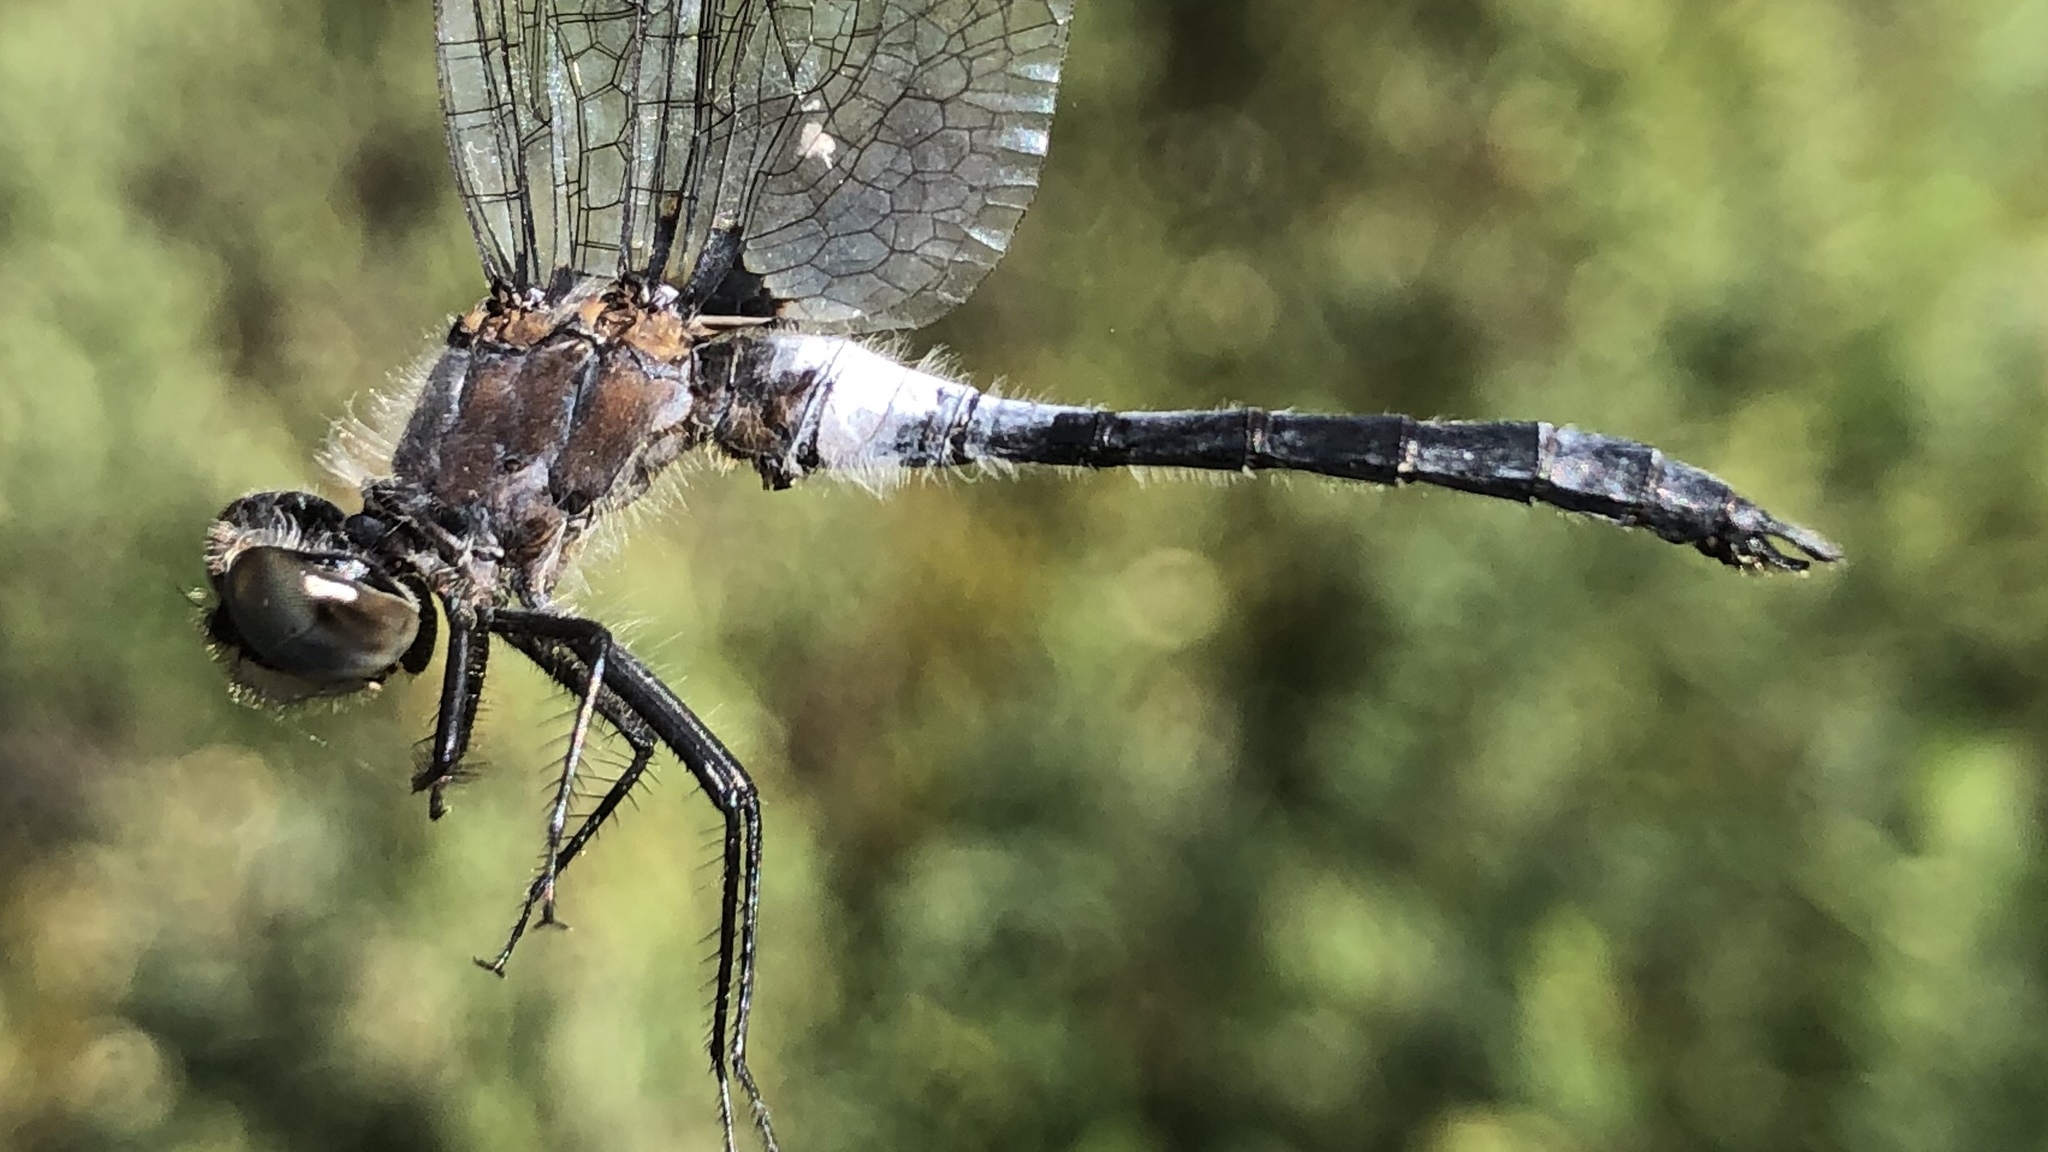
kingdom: Animalia
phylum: Arthropoda
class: Insecta
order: Odonata
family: Libellulidae
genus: Leucorrhinia
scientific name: Leucorrhinia frigida
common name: Frosted whiteface
